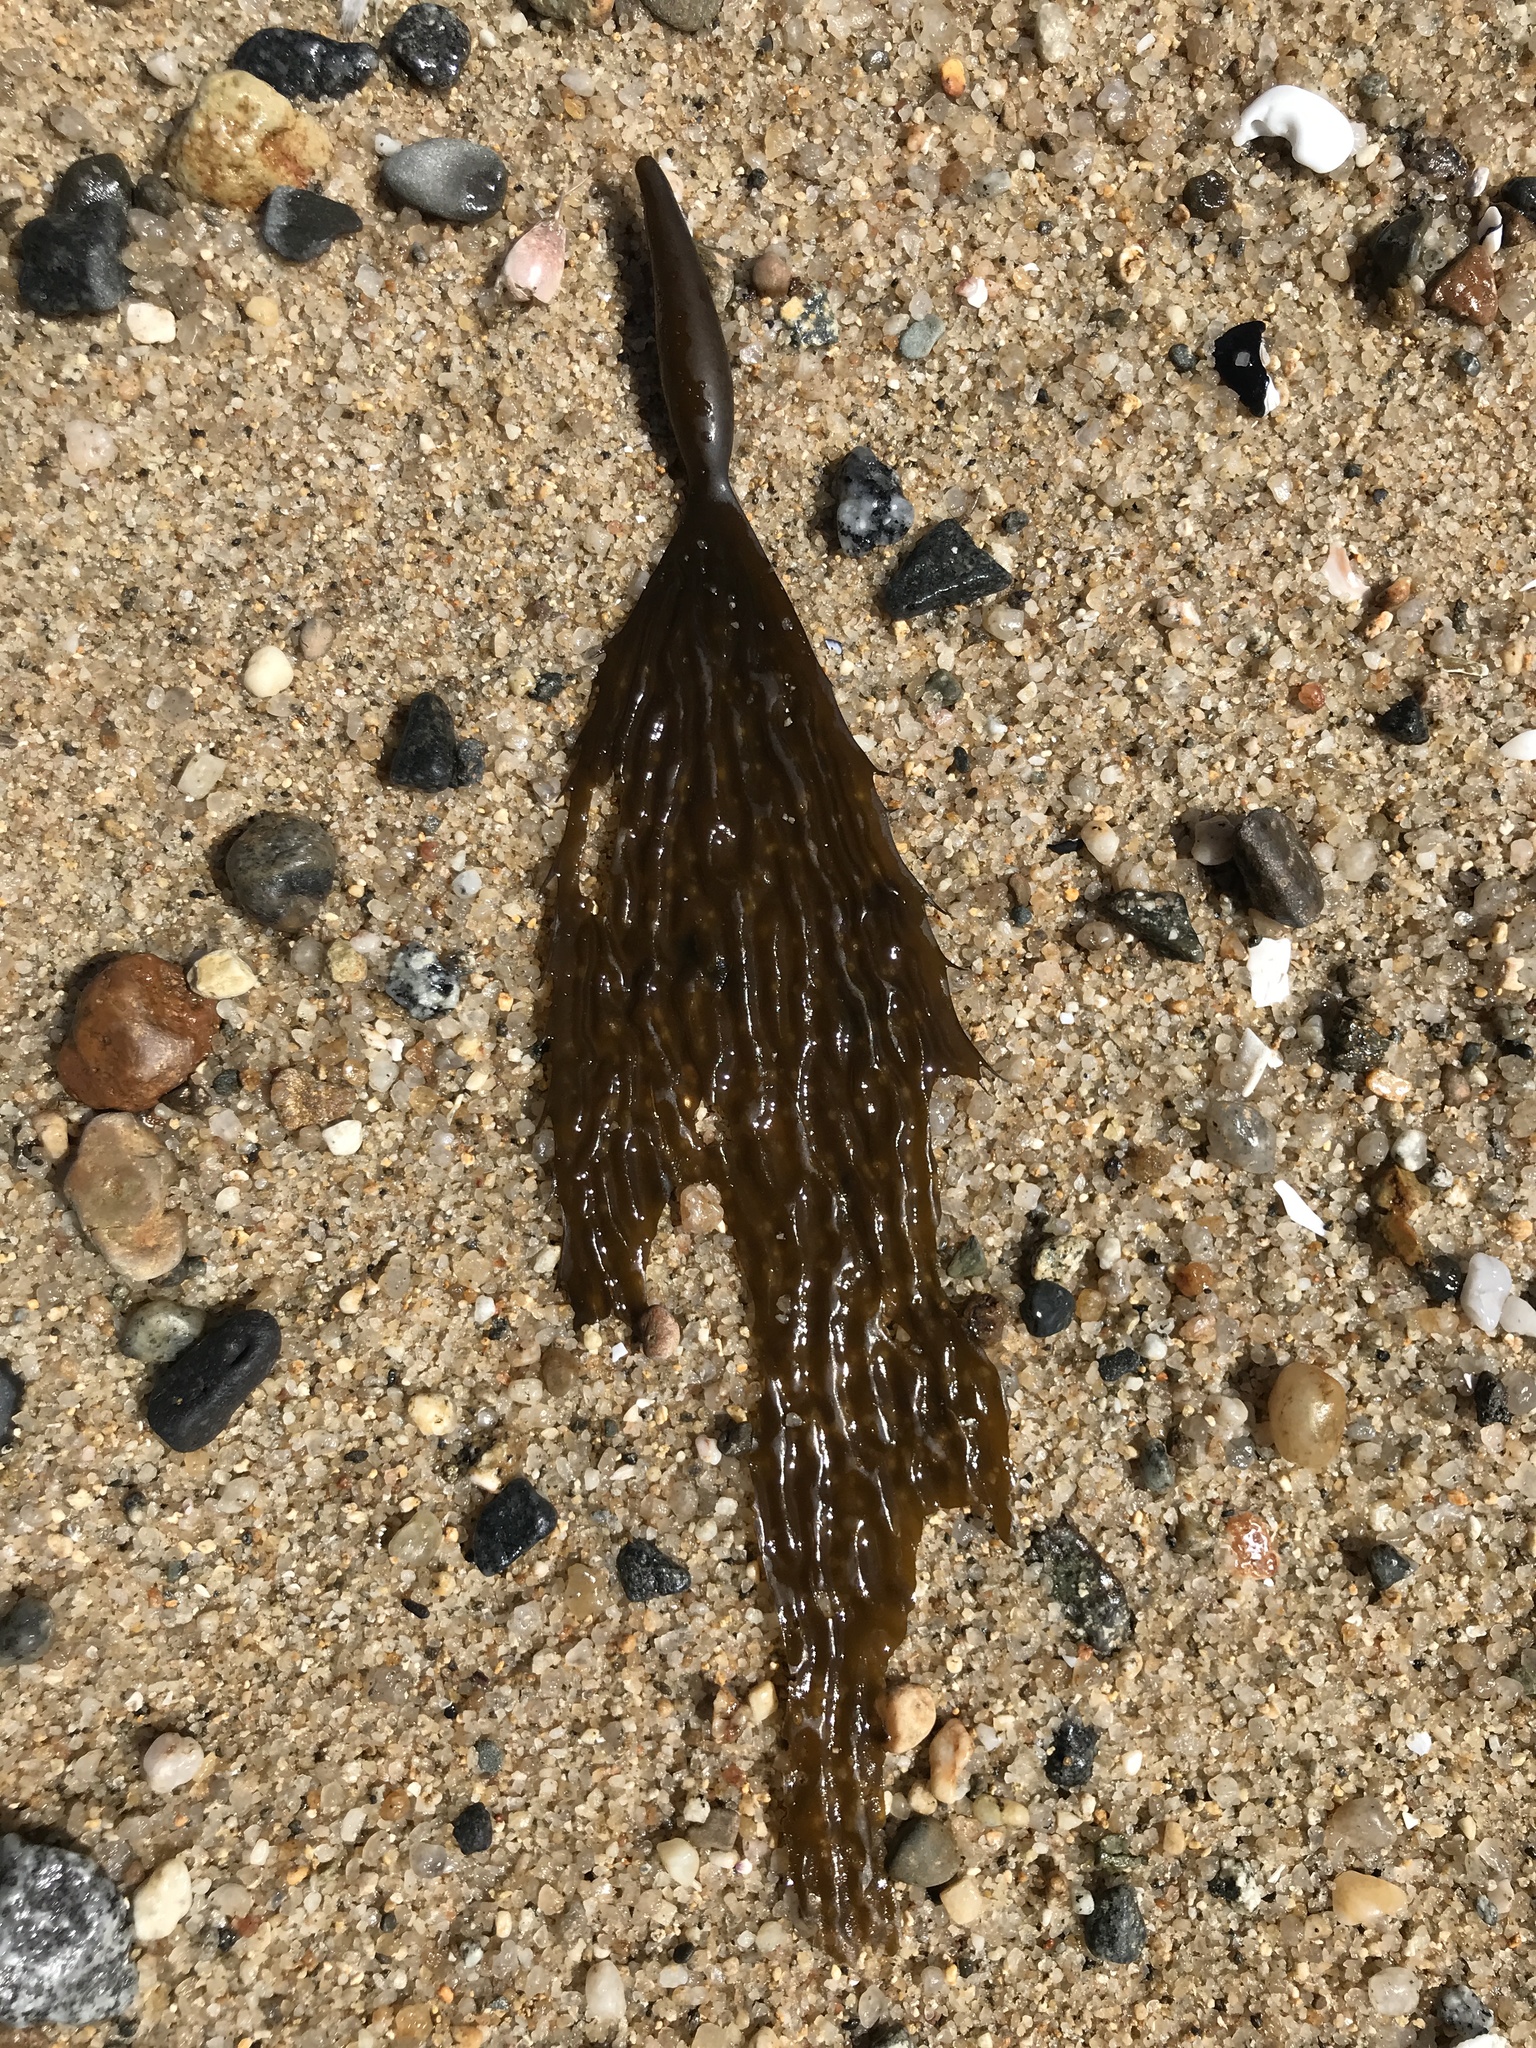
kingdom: Chromista
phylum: Ochrophyta
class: Phaeophyceae
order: Laminariales
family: Laminariaceae
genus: Macrocystis
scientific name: Macrocystis pyrifera
